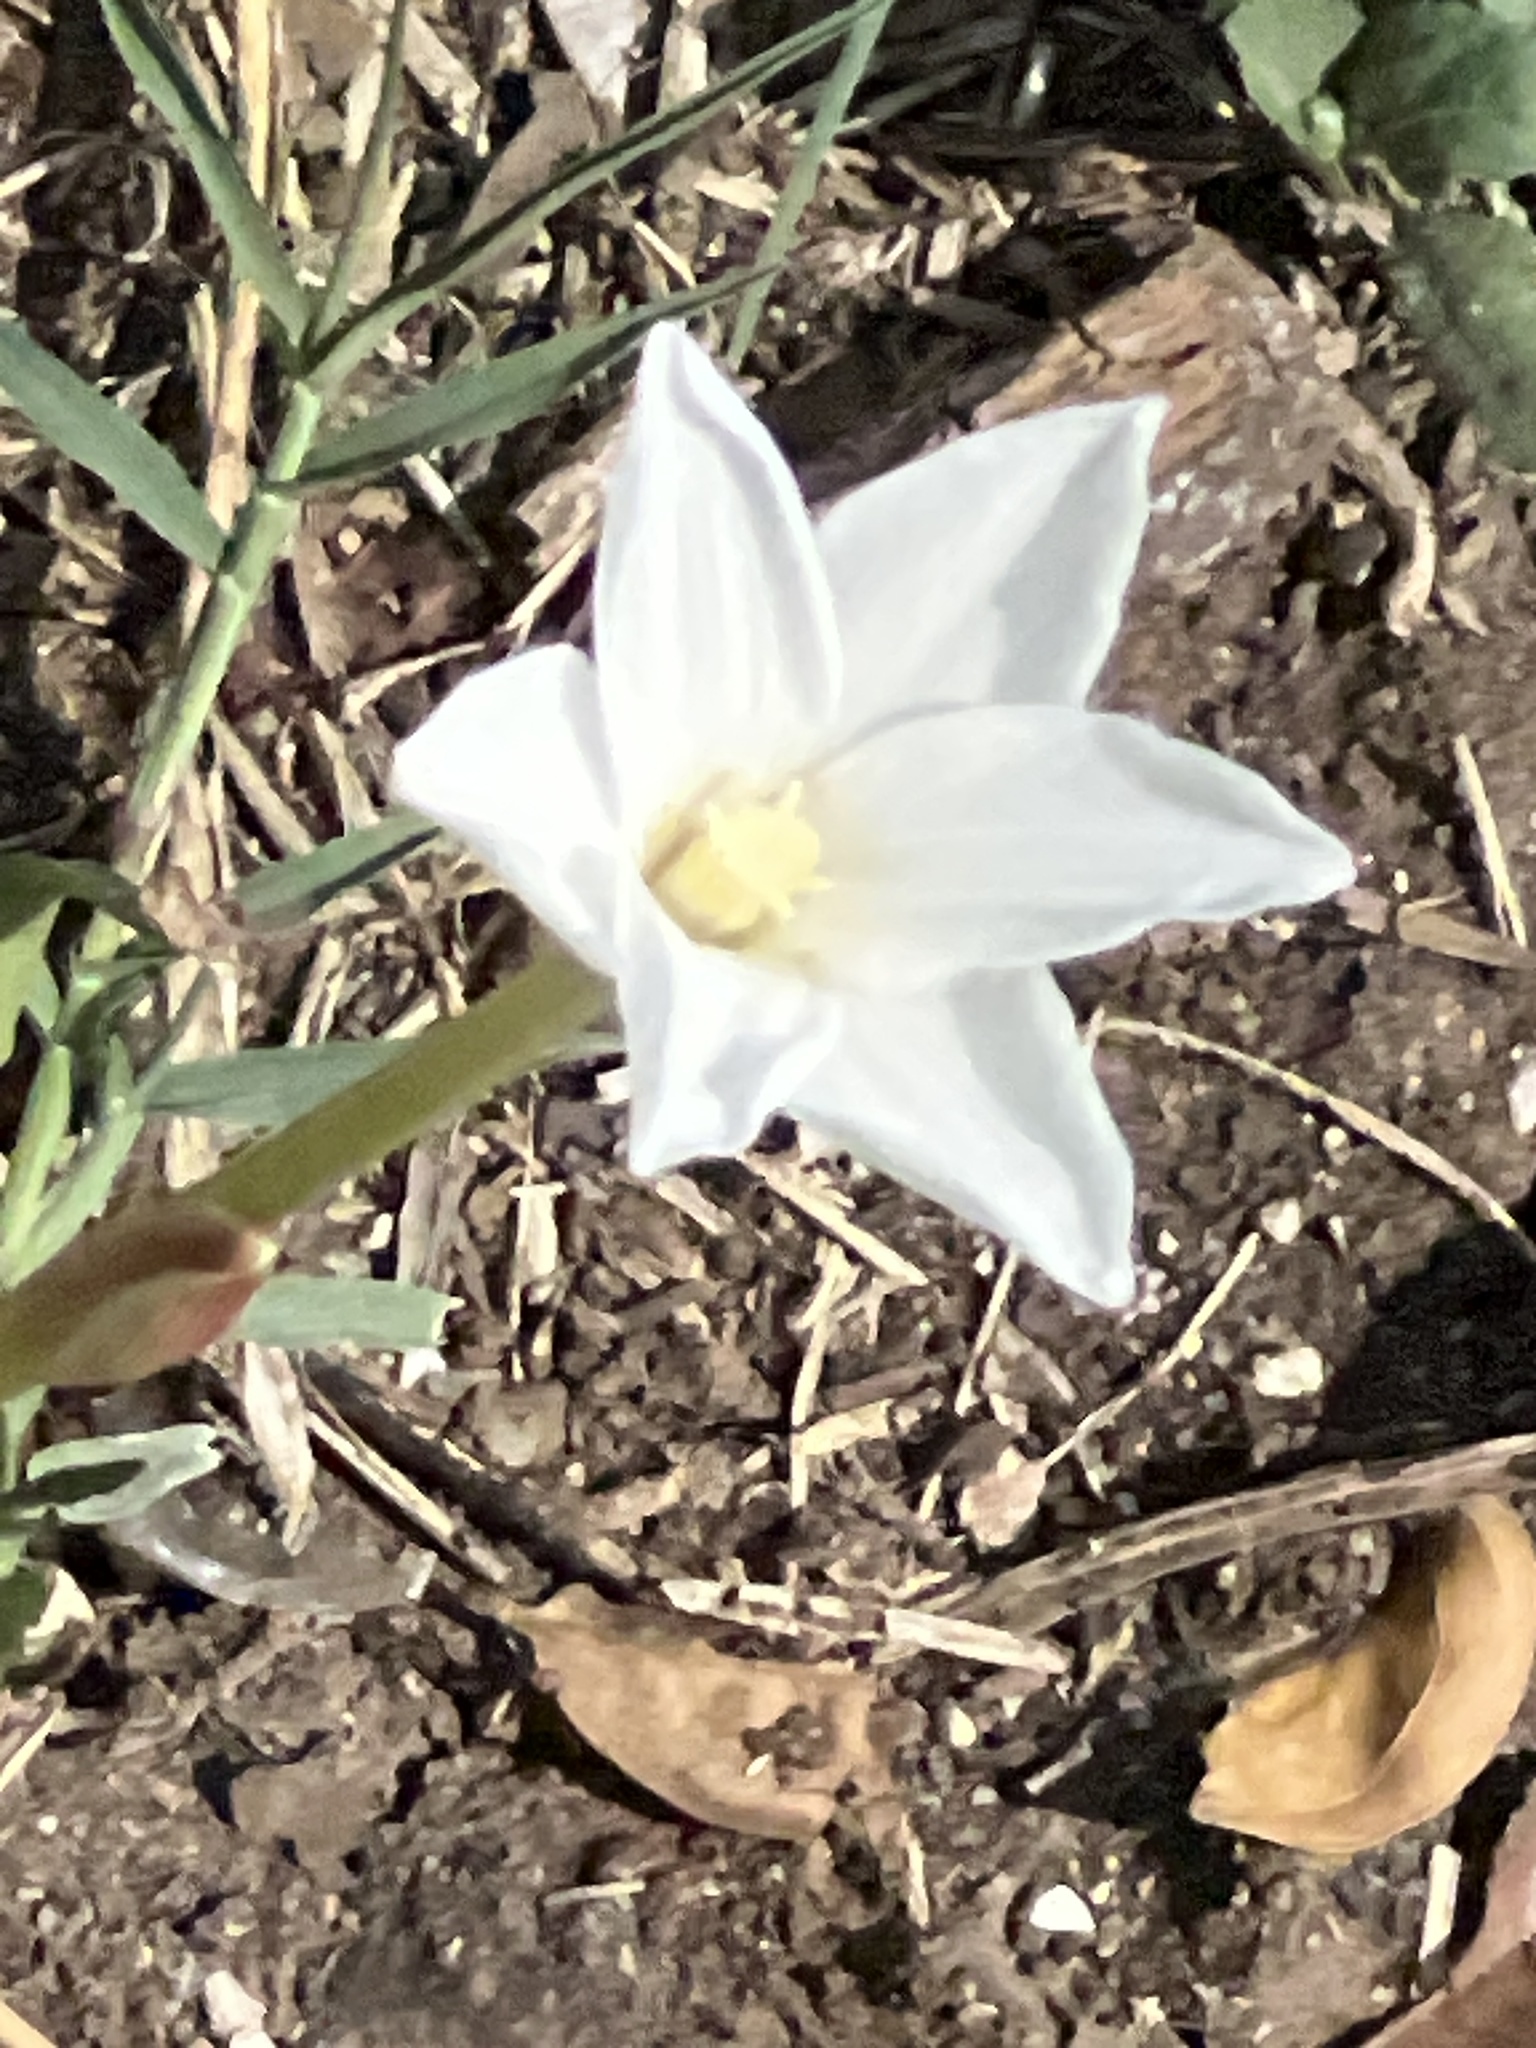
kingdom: Plantae
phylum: Tracheophyta
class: Liliopsida
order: Asparagales
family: Amaryllidaceae
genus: Zephyranthes
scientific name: Zephyranthes chlorosolen
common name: Evening rain-lily
